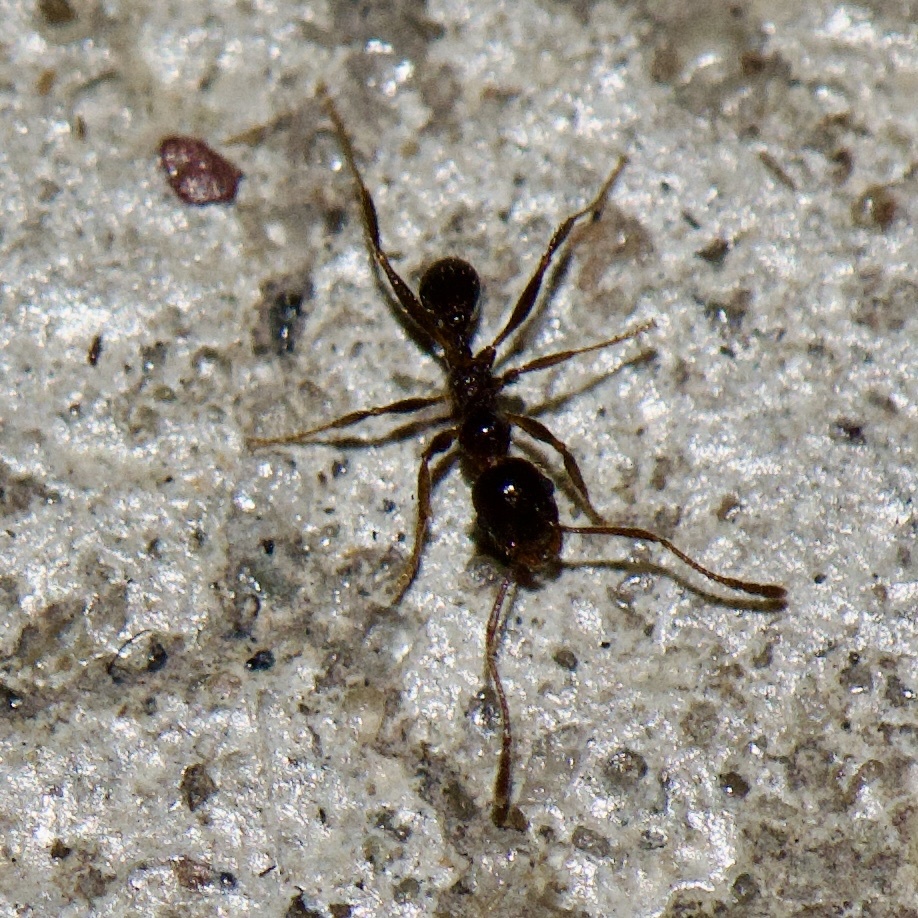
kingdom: Animalia
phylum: Arthropoda
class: Insecta
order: Hymenoptera
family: Formicidae
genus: Pheidole
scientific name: Pheidole dentata
